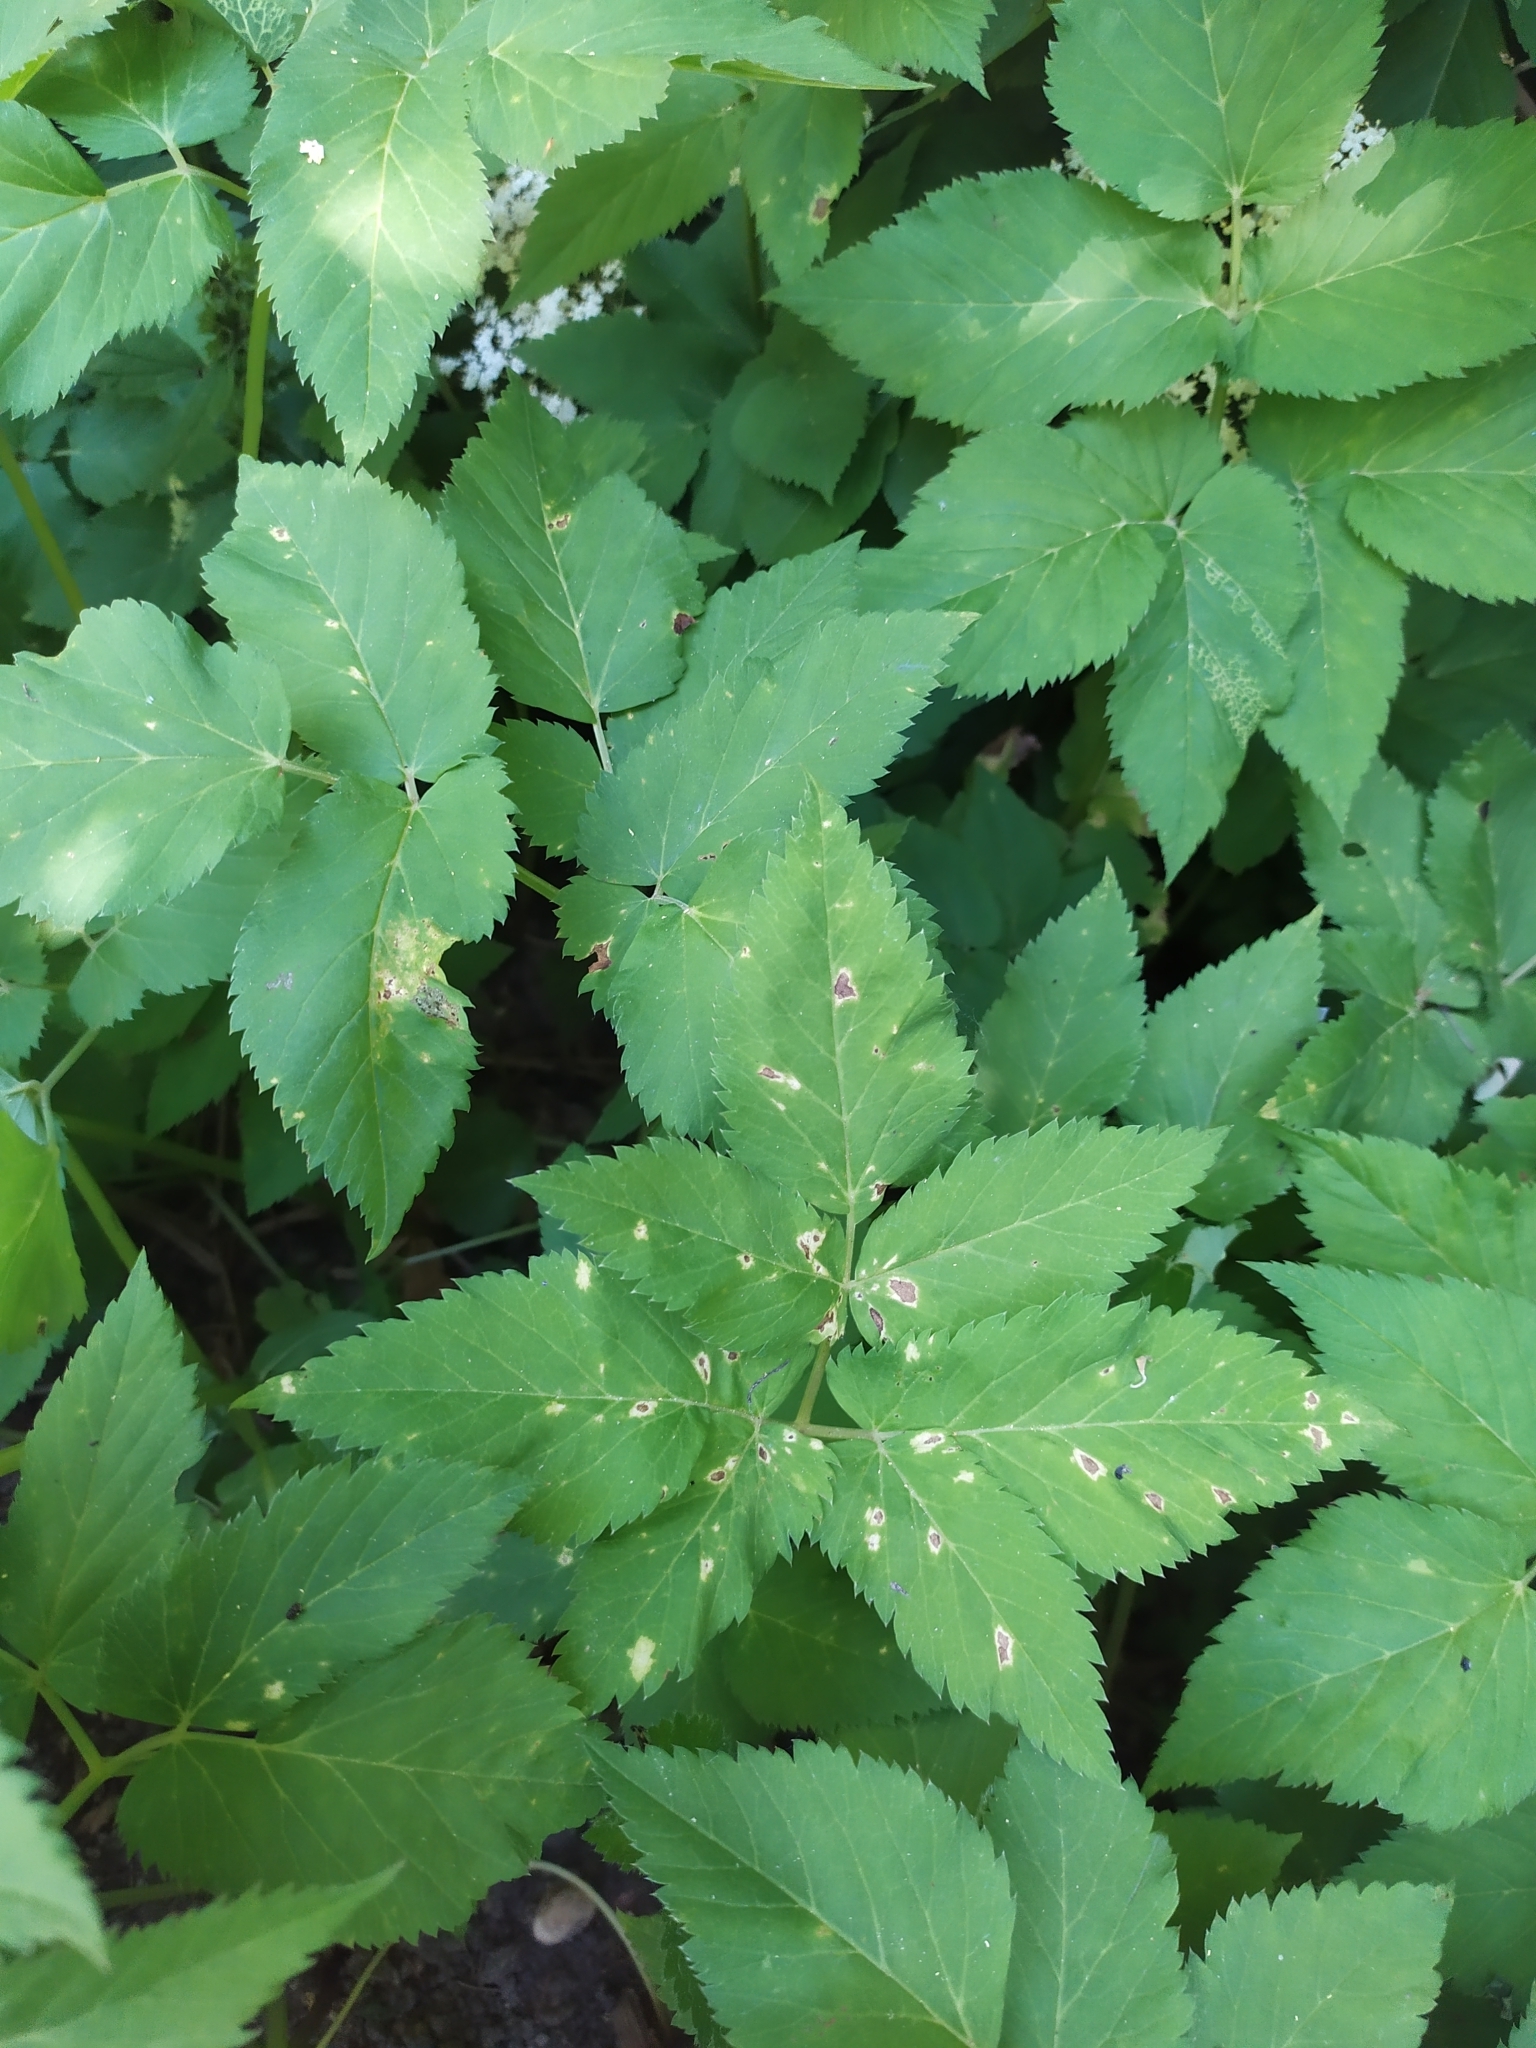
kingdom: Chromista
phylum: Oomycota
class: Peronosporea
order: Peronosporales
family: Peronosporaceae
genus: Peronospora
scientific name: Peronospora crustosa
